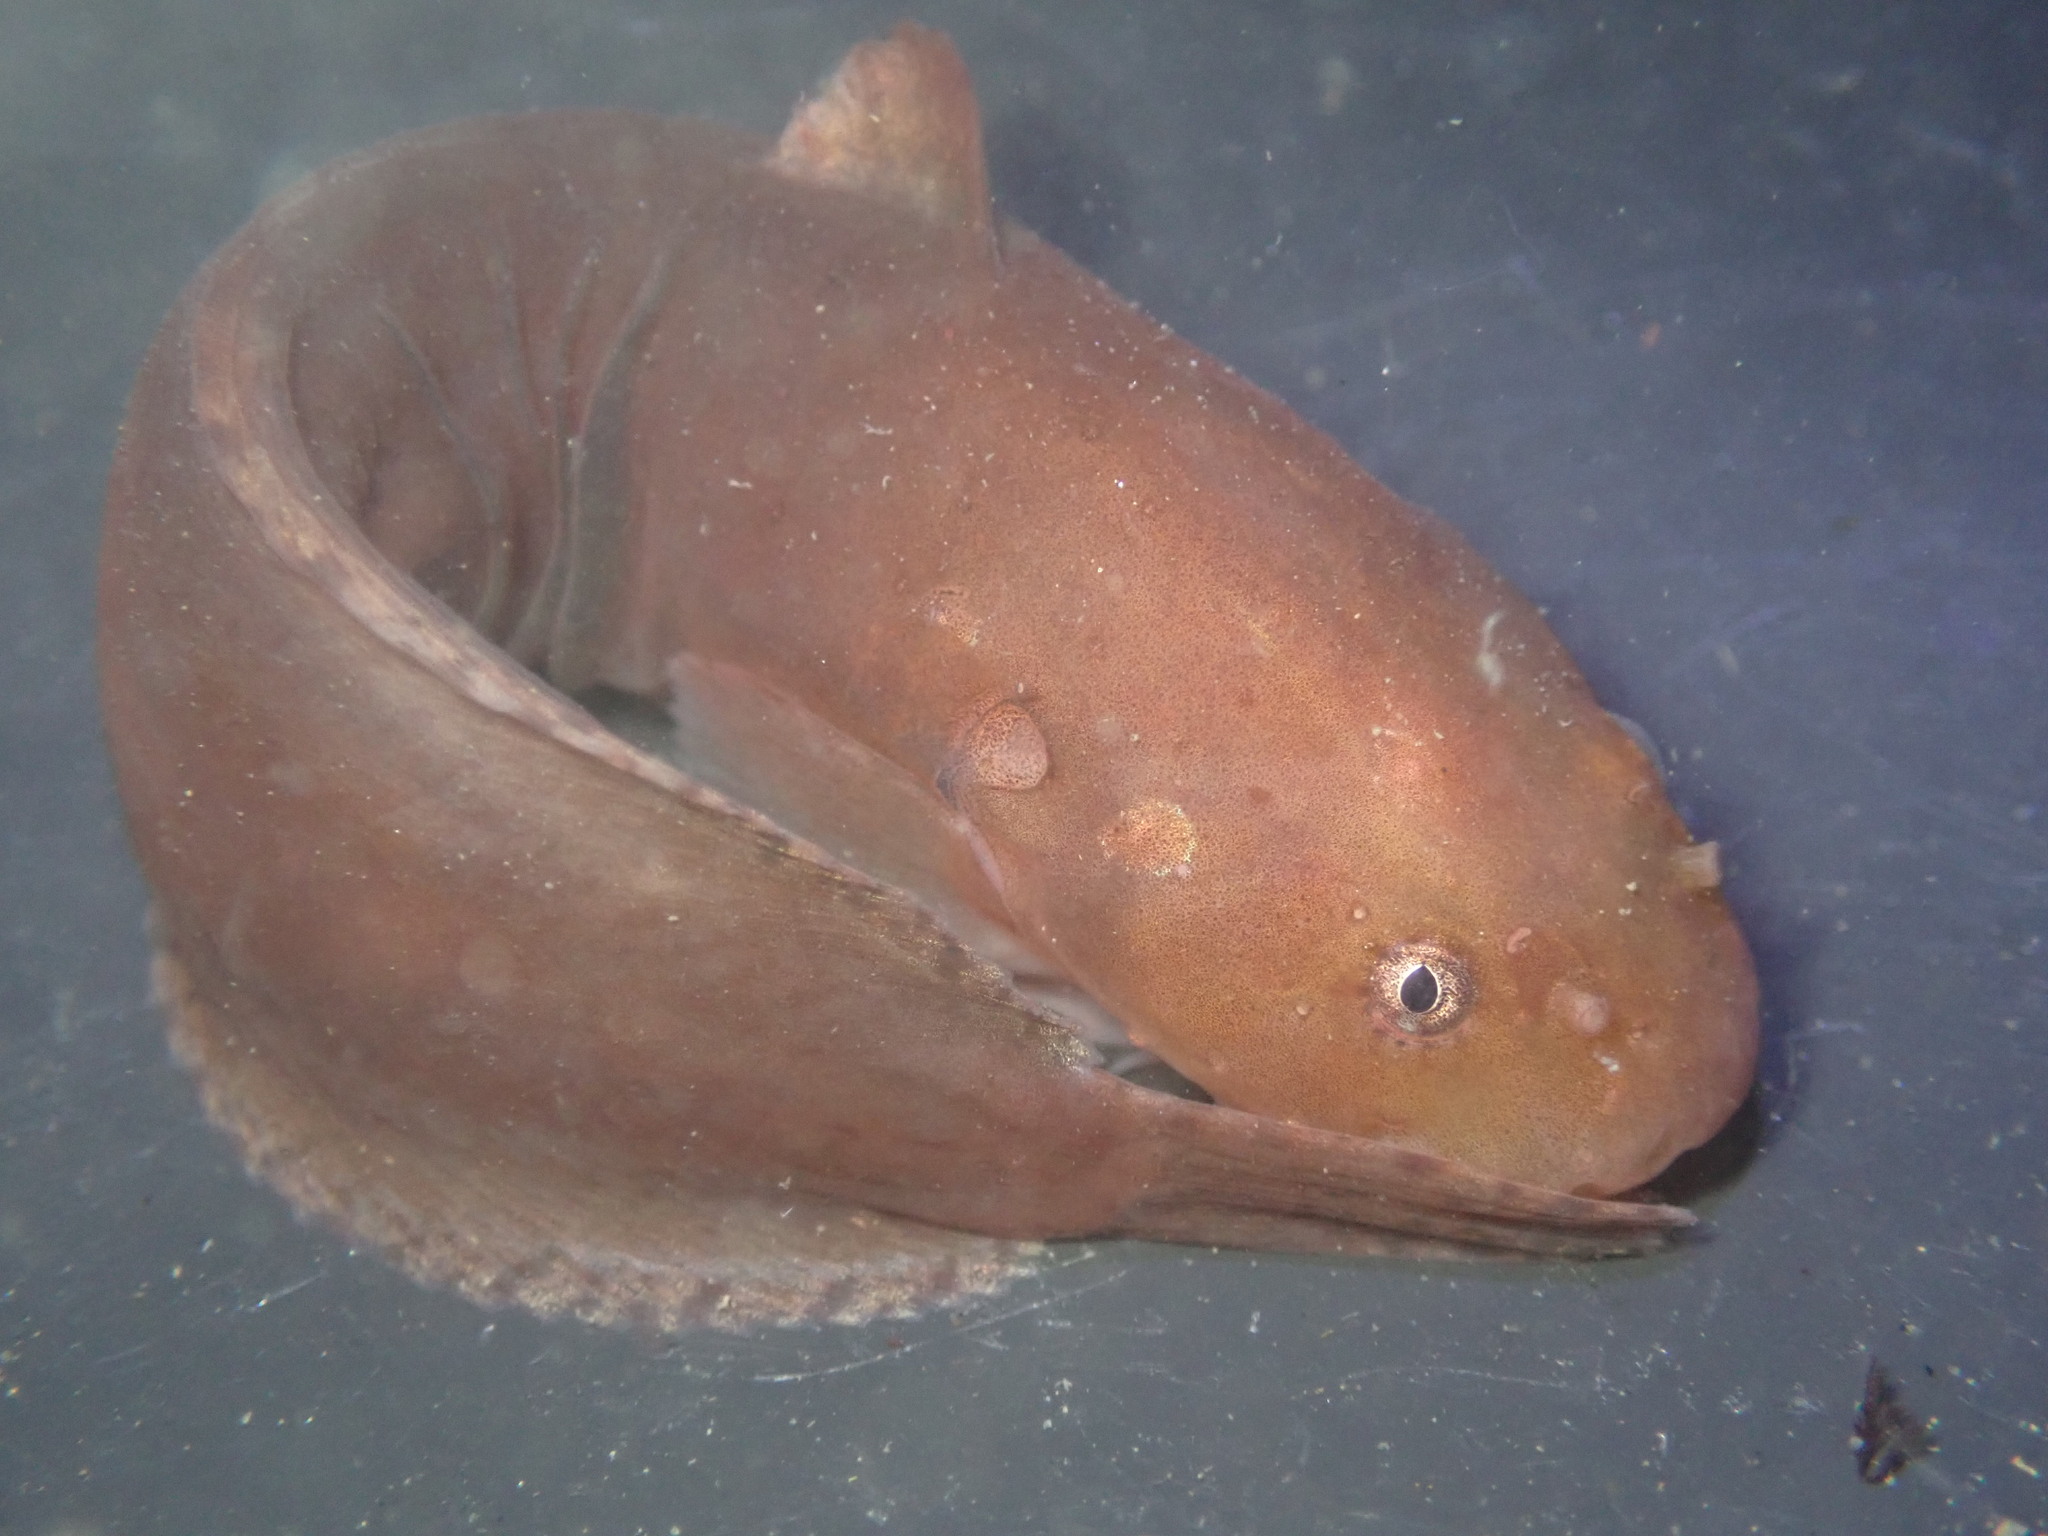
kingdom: Animalia
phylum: Chordata
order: Scorpaeniformes
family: Liparidae
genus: Liparis
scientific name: Liparis florae
